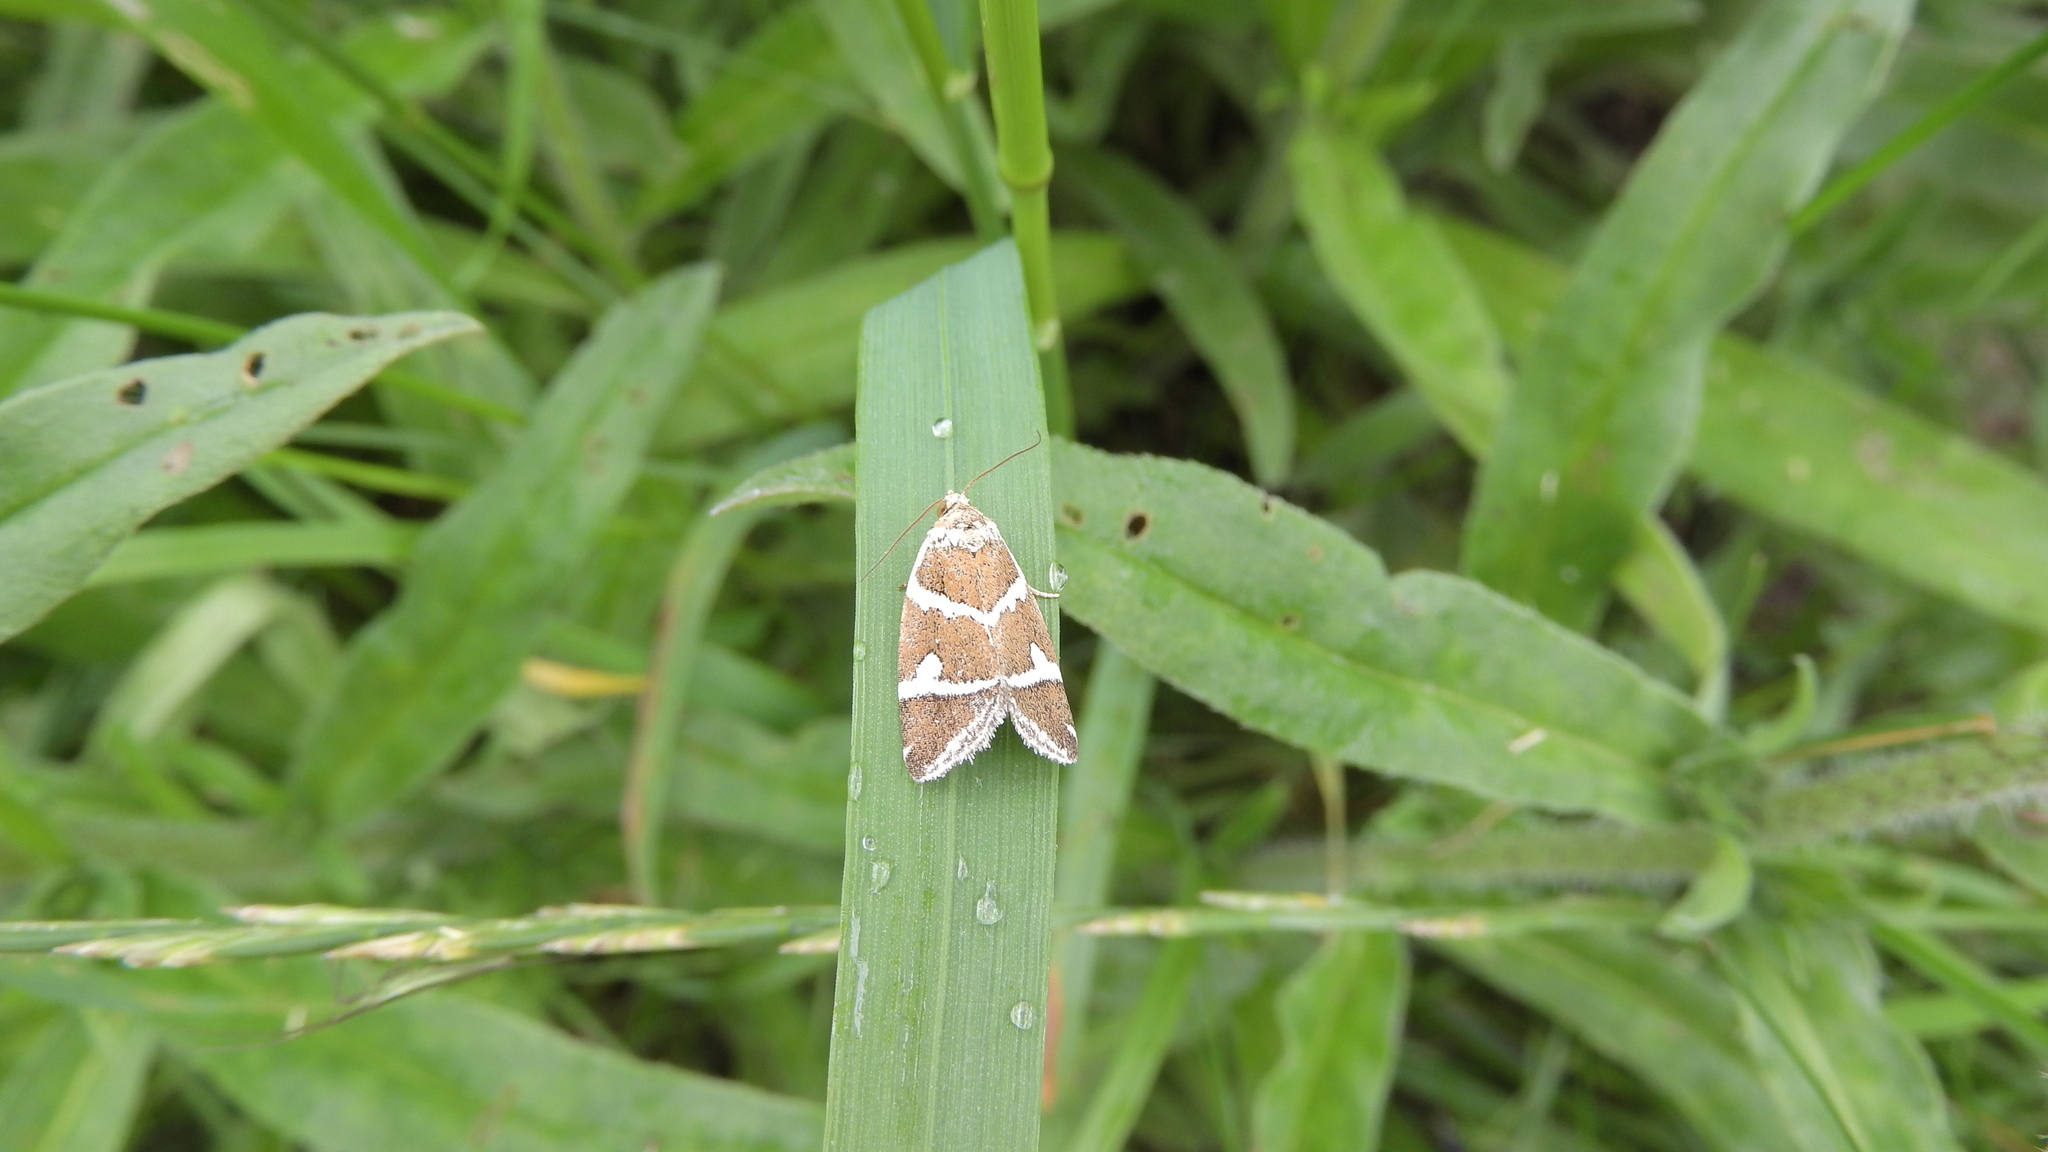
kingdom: Animalia
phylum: Arthropoda
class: Insecta
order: Lepidoptera
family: Noctuidae
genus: Deltote
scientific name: Deltote bankiana
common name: Silver barred
